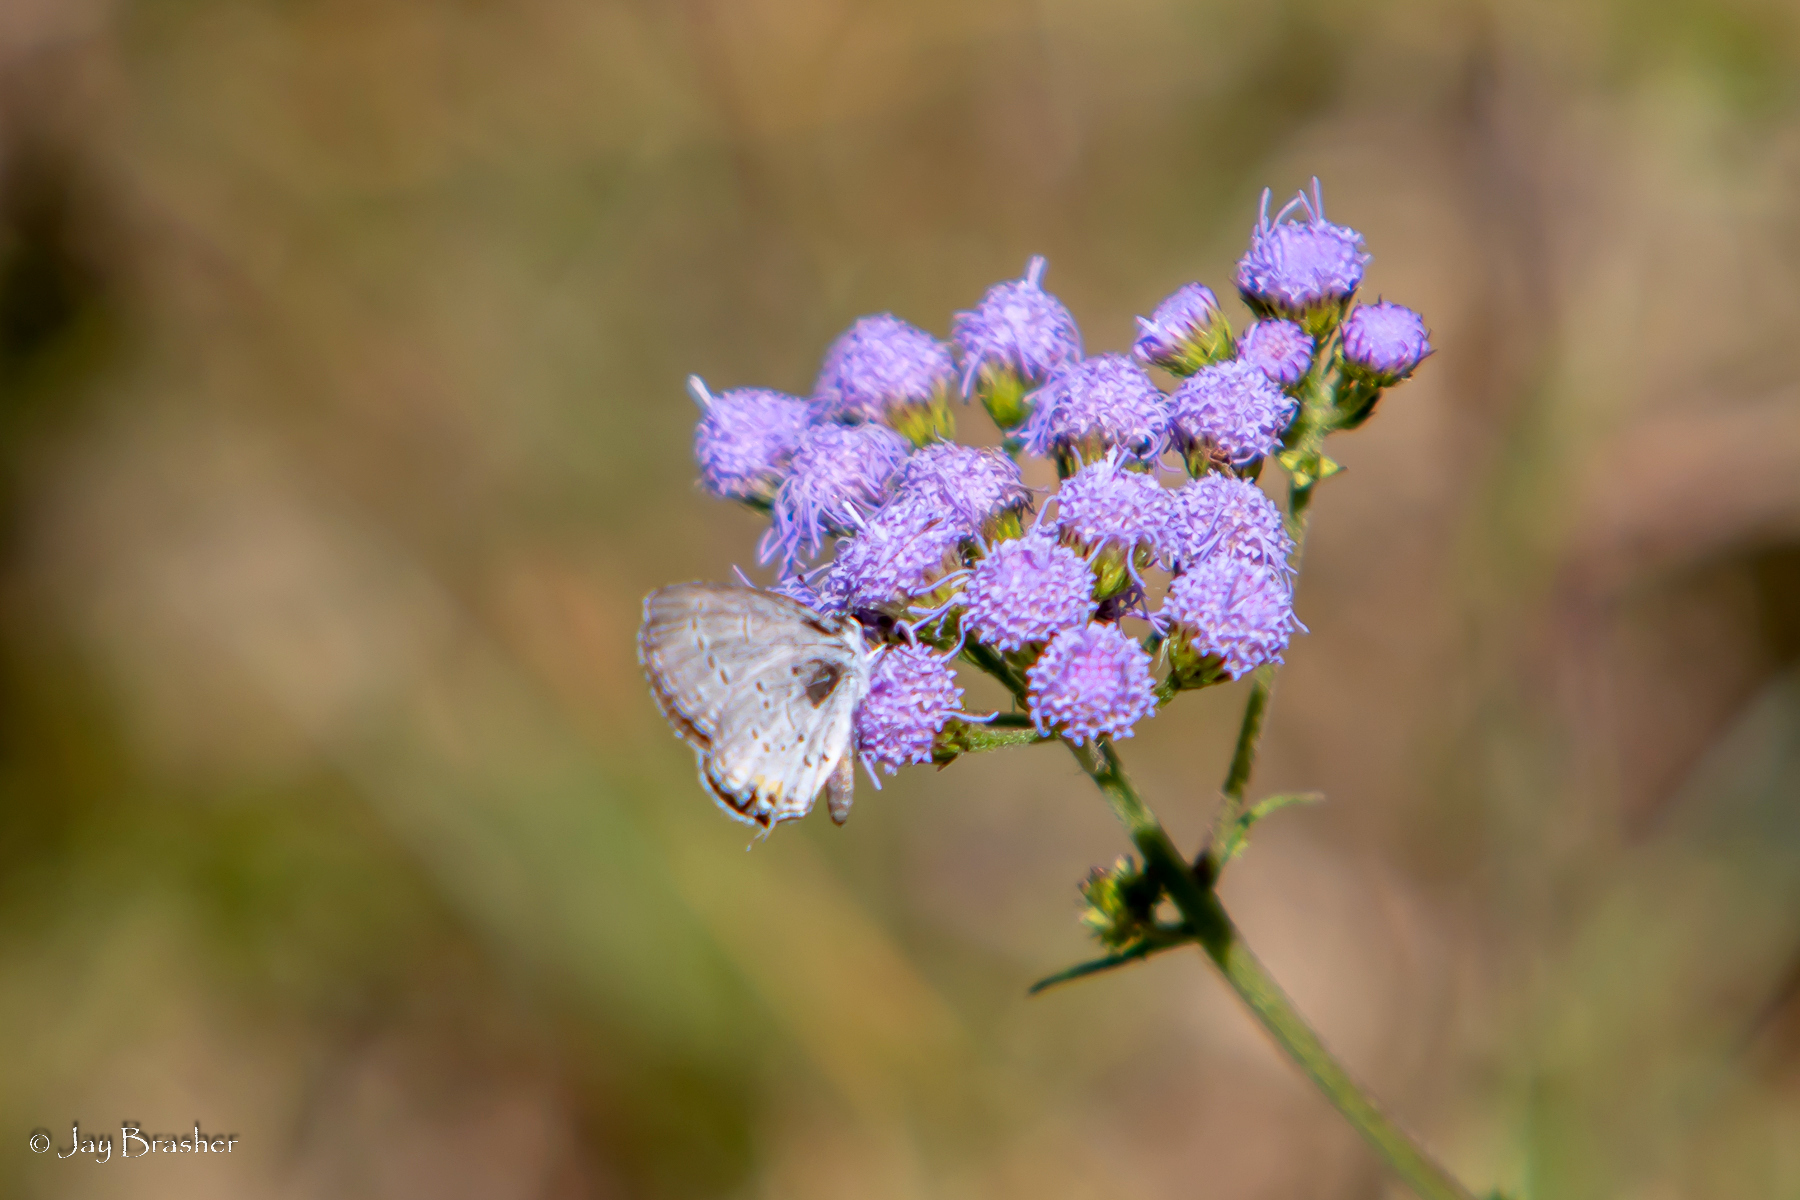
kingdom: Plantae
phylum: Tracheophyta
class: Magnoliopsida
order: Asterales
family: Asteraceae
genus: Conoclinium
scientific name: Conoclinium coelestinum
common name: Blue mistflower
